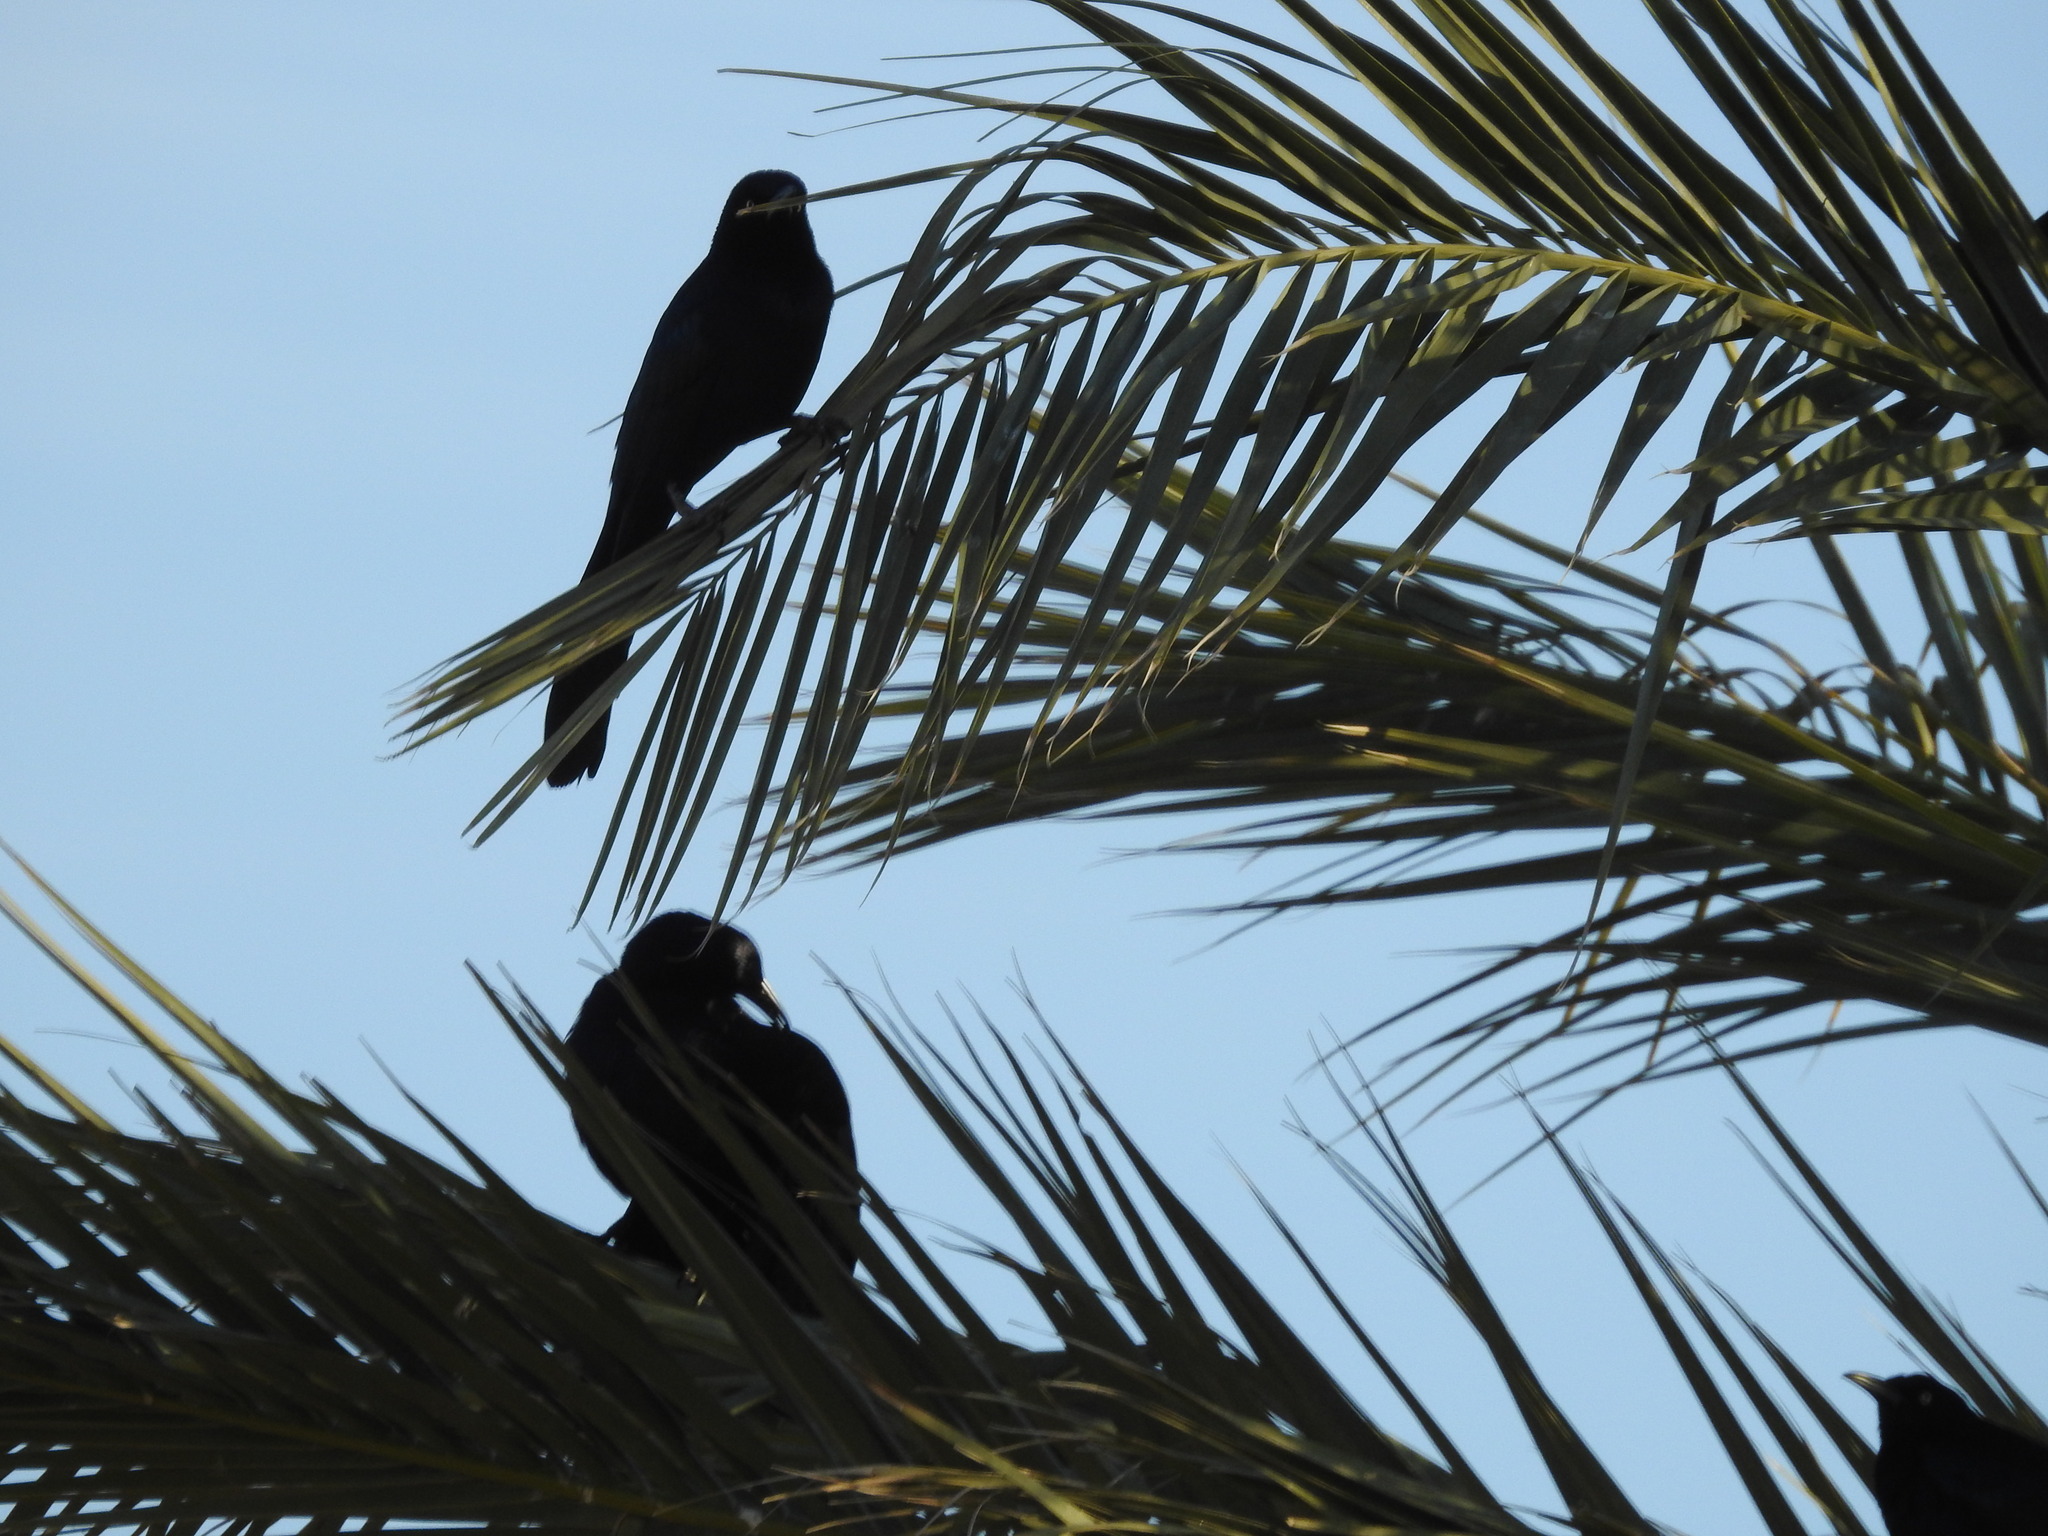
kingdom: Animalia
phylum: Chordata
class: Aves
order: Passeriformes
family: Icteridae
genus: Quiscalus
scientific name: Quiscalus mexicanus
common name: Great-tailed grackle
